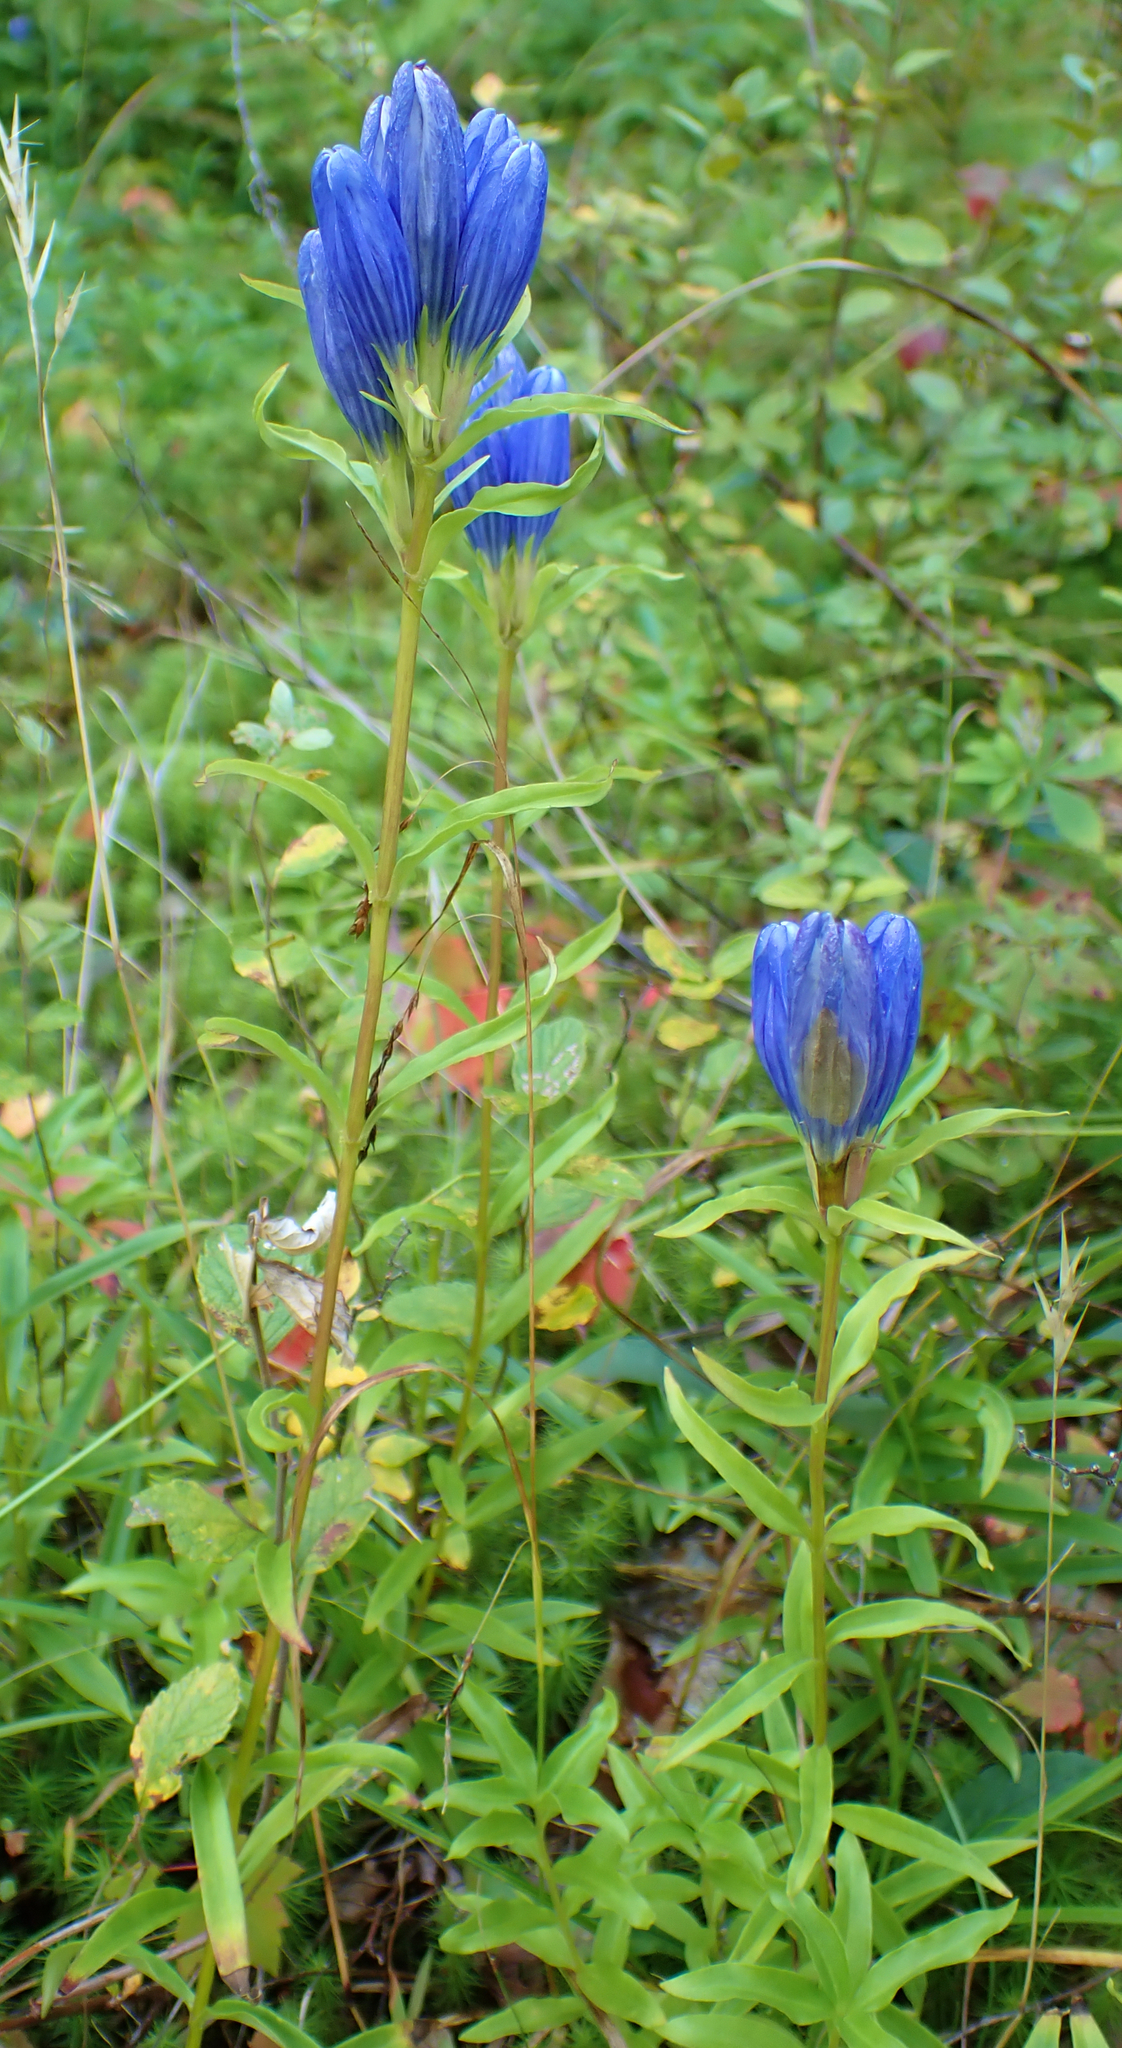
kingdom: Plantae
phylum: Tracheophyta
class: Magnoliopsida
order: Gentianales
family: Gentianaceae
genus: Gentiana
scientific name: Gentiana linearis
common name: Bastard gentian
